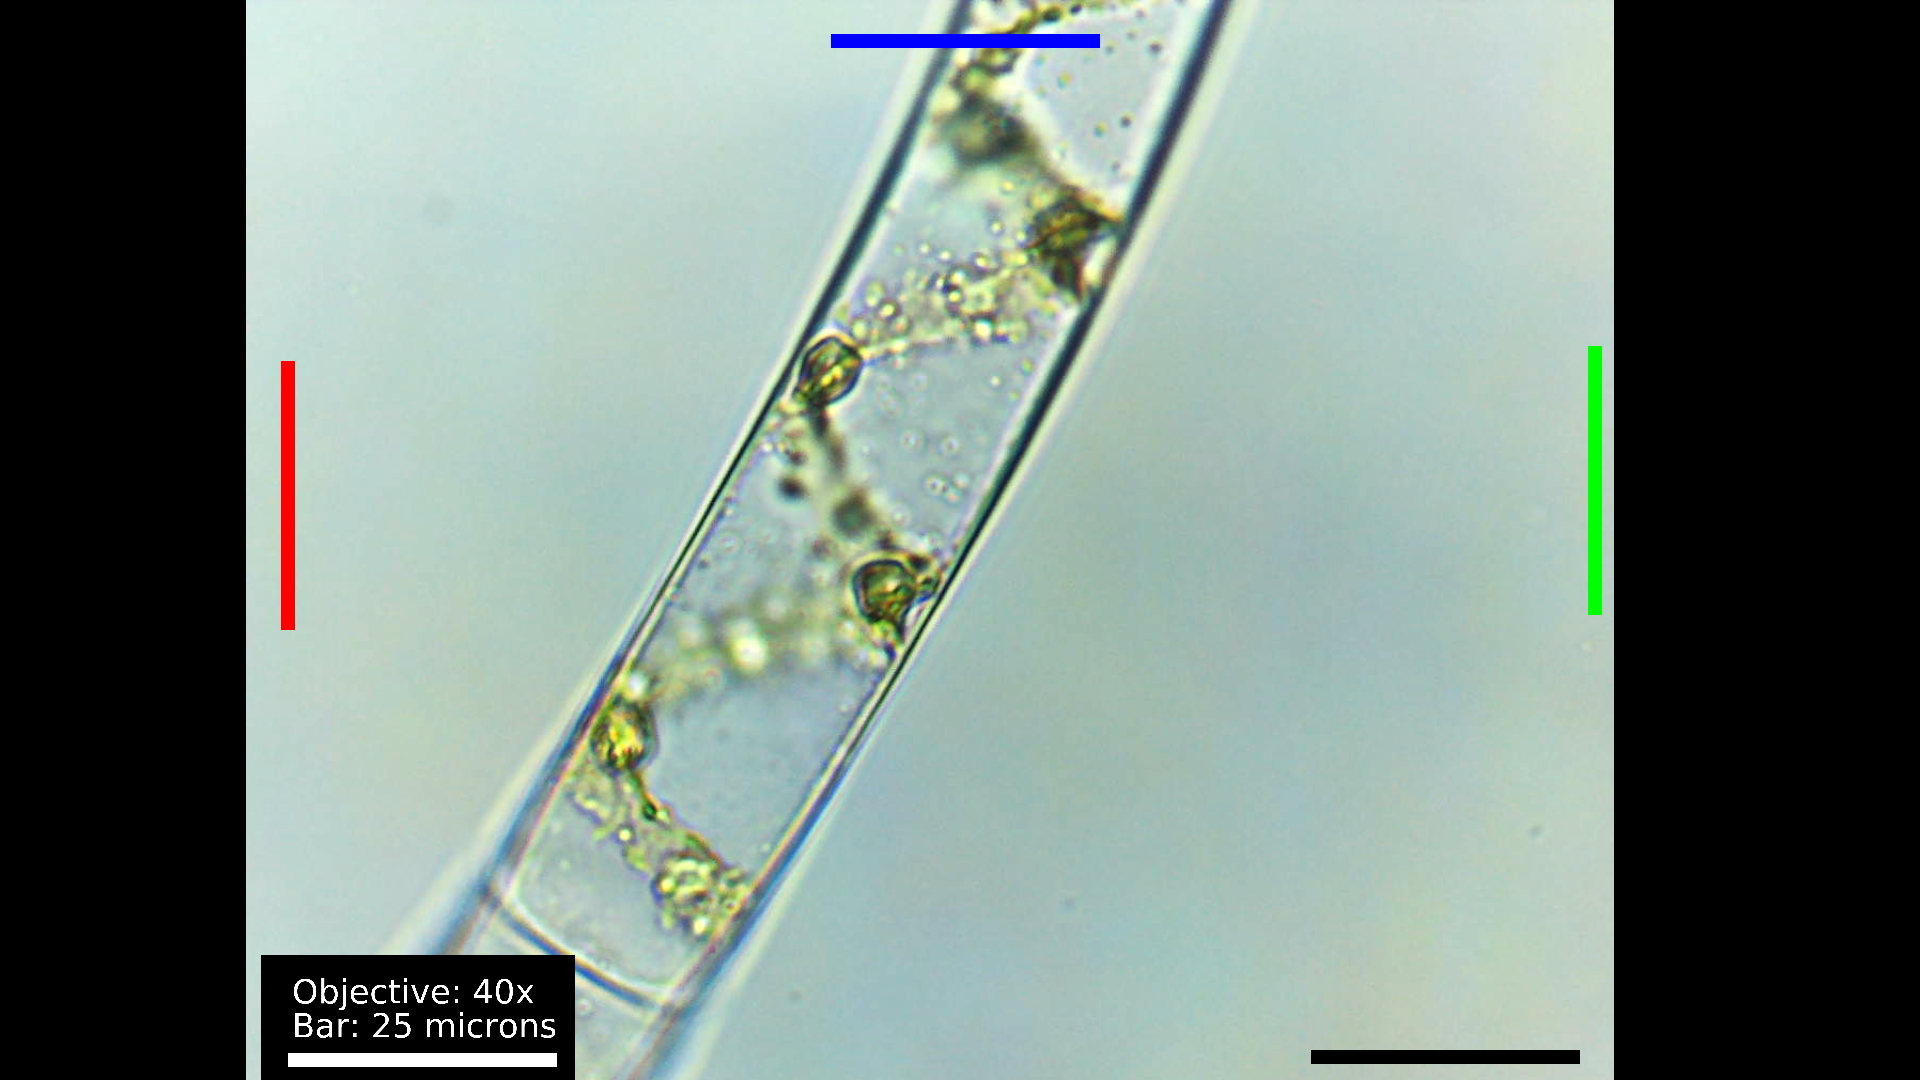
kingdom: Plantae
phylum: Charophyta
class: Zygnematophyceae
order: Zygnematales
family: Zygnemataceae
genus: Spirogyra
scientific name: Spirogyra
